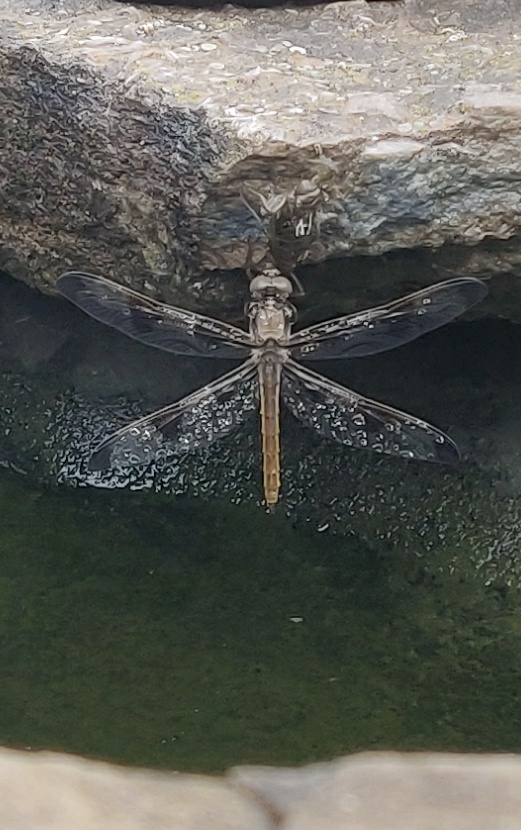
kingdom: Animalia
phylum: Arthropoda
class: Insecta
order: Odonata
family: Libellulidae
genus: Libellula
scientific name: Libellula pulchella
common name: Twelve-spotted skimmer
